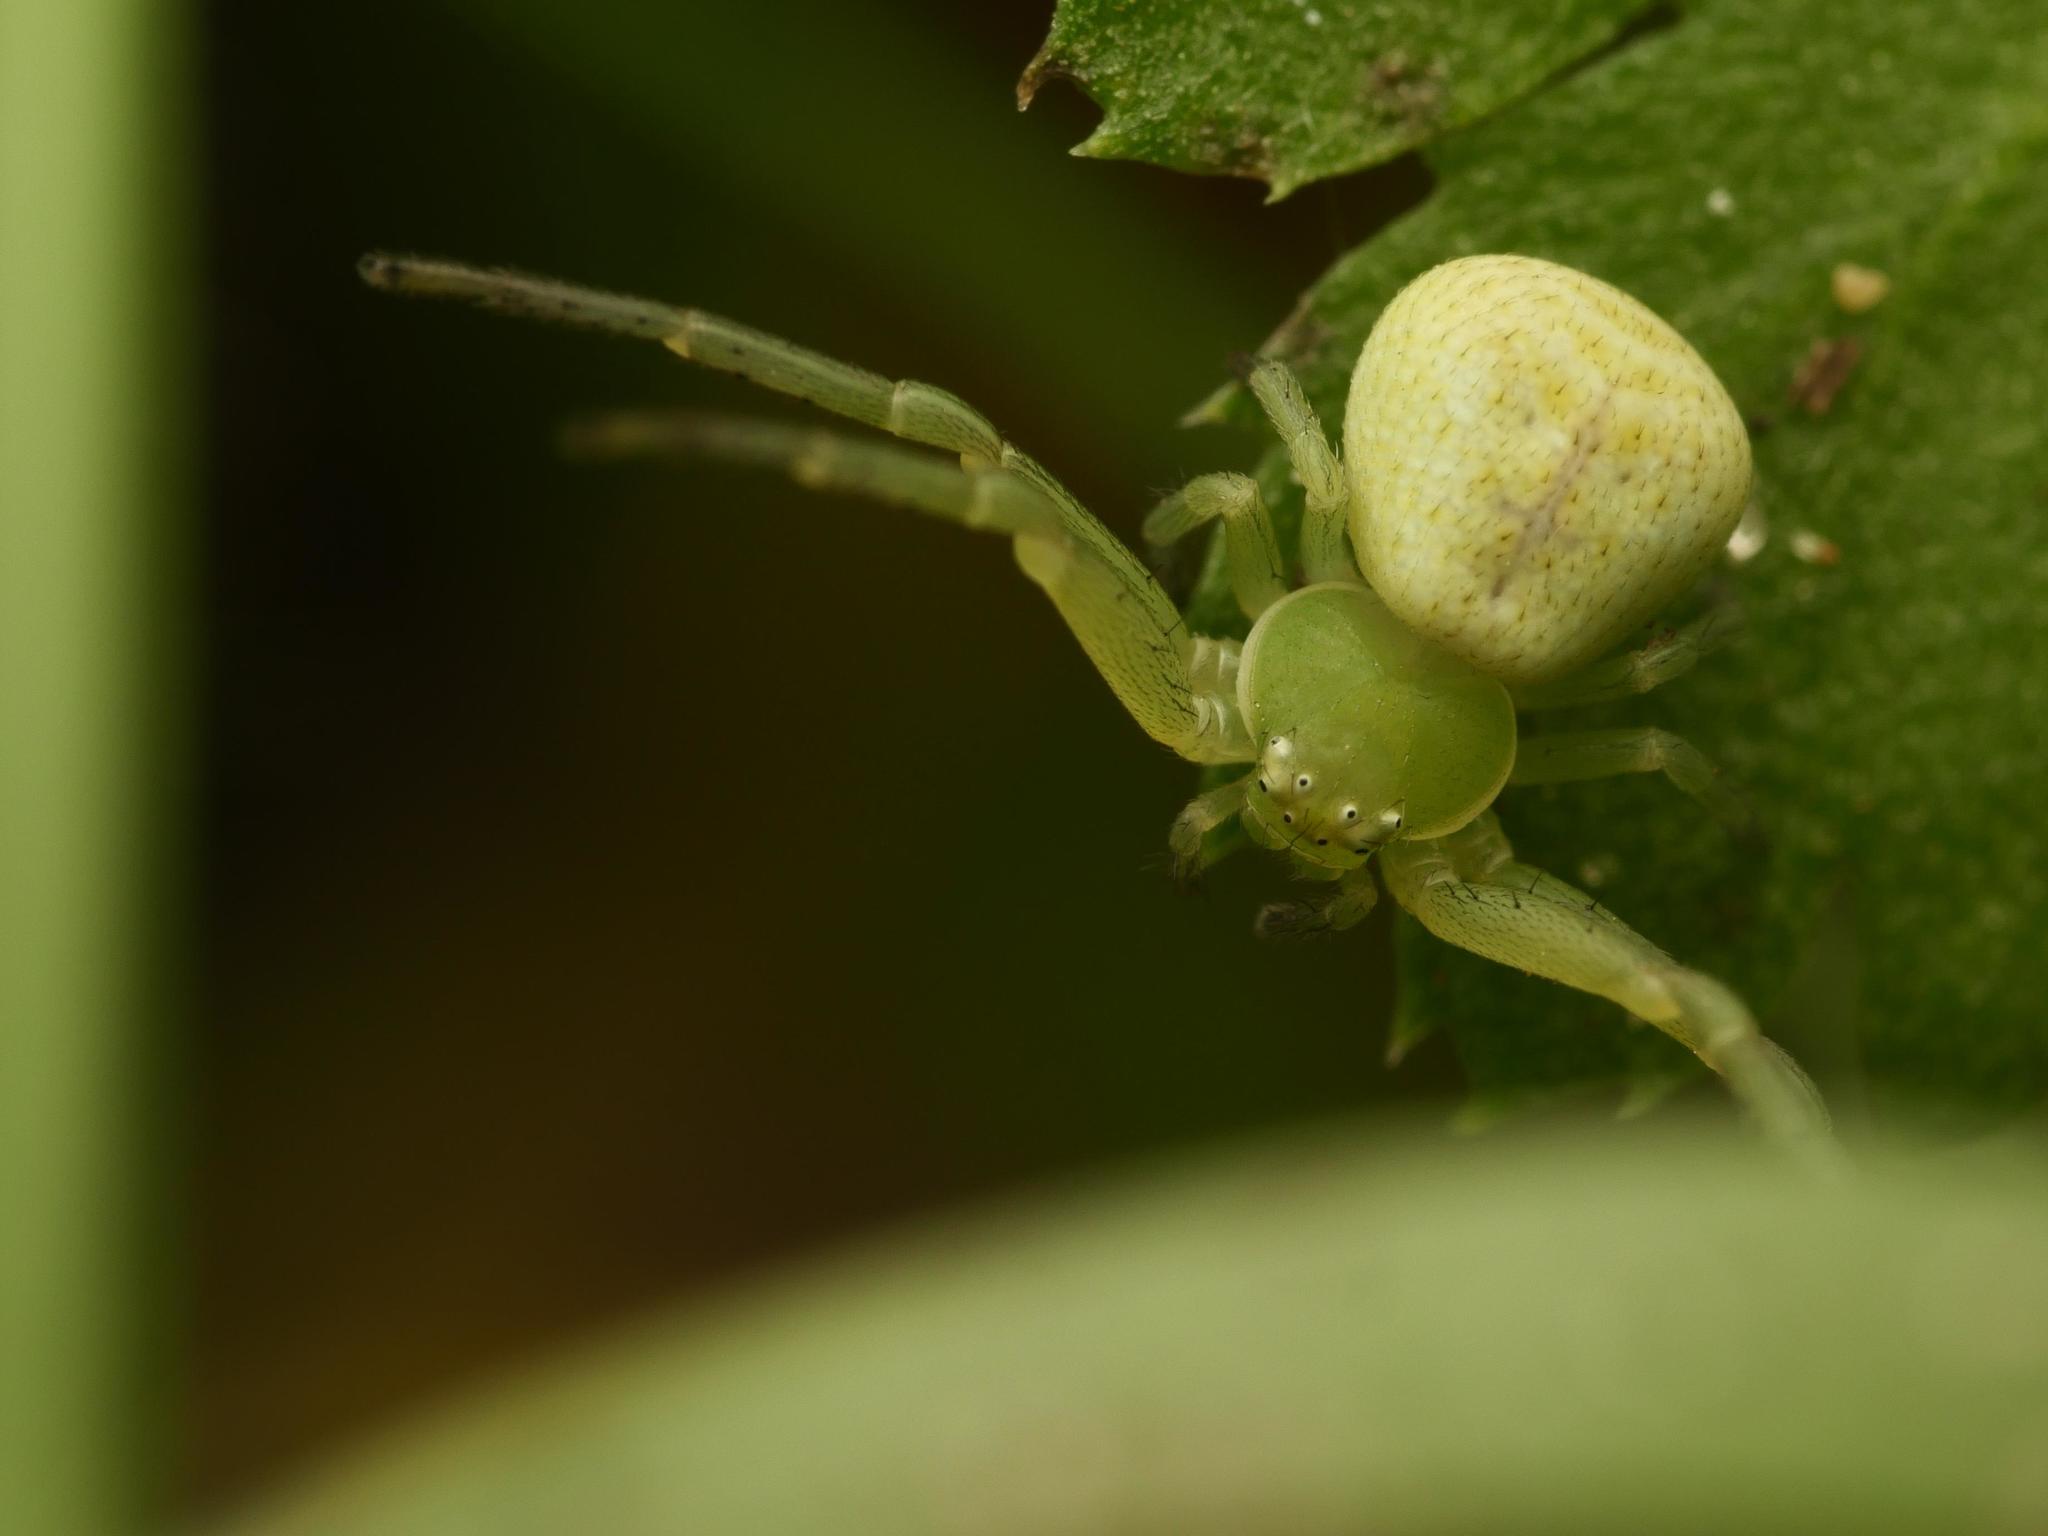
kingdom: Animalia
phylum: Arthropoda
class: Arachnida
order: Araneae
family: Thomisidae
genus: Ebrechtella
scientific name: Ebrechtella tricuspidata
